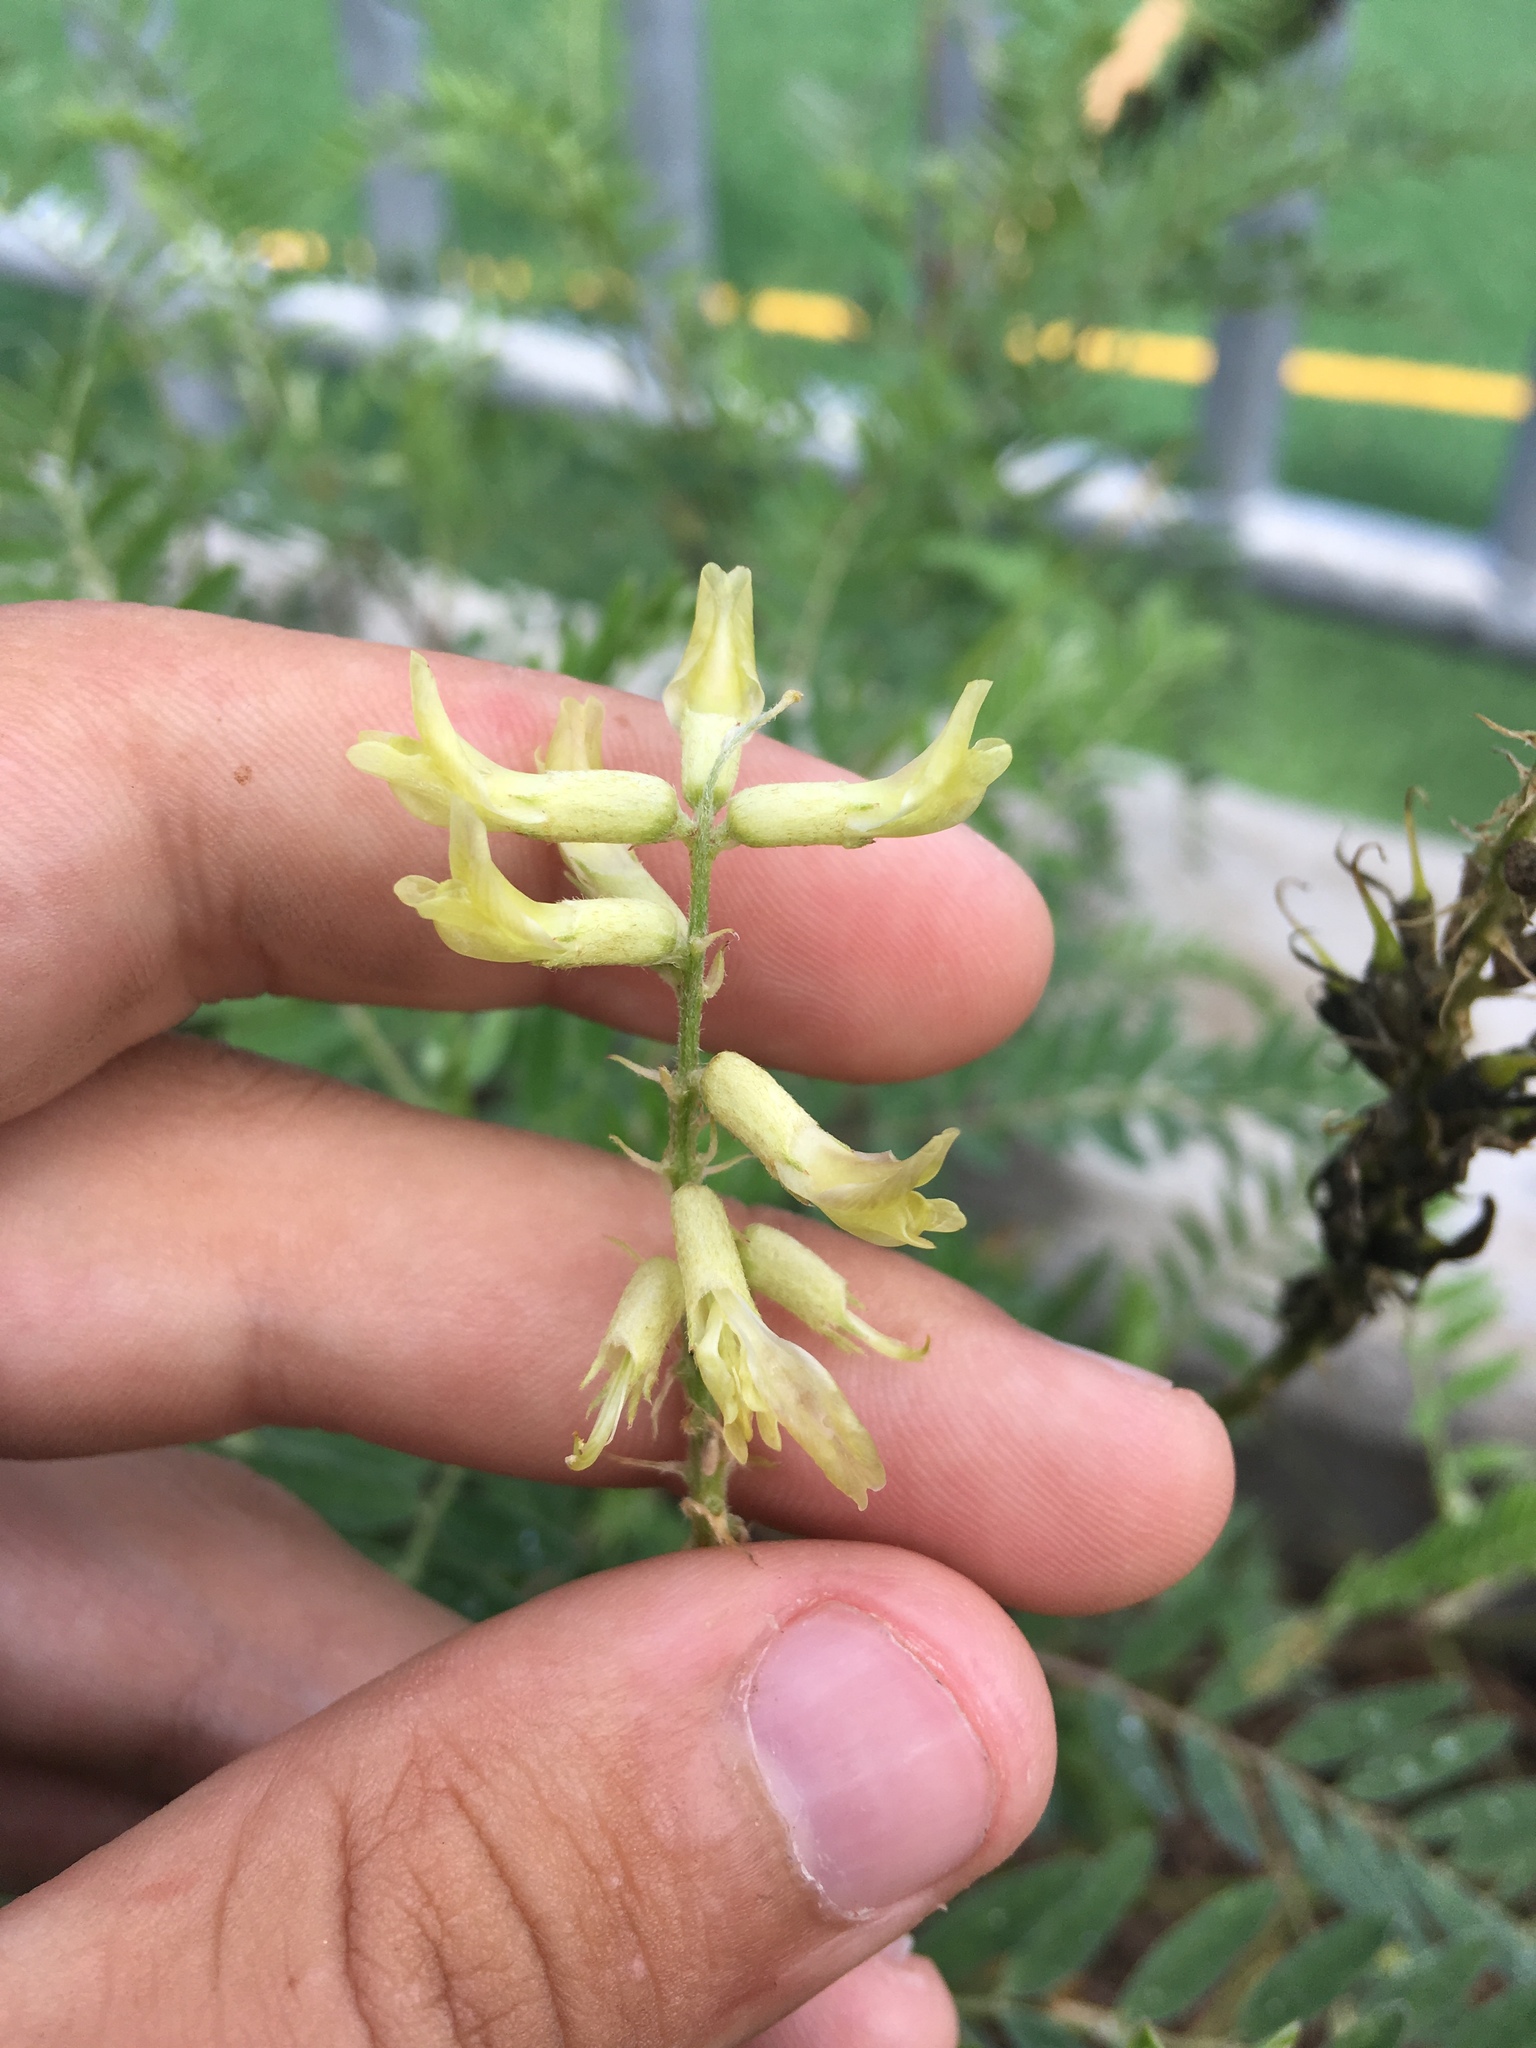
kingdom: Plantae
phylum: Tracheophyta
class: Magnoliopsida
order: Fabales
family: Fabaceae
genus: Astragalus
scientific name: Astragalus canadensis
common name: Canada milk-vetch
